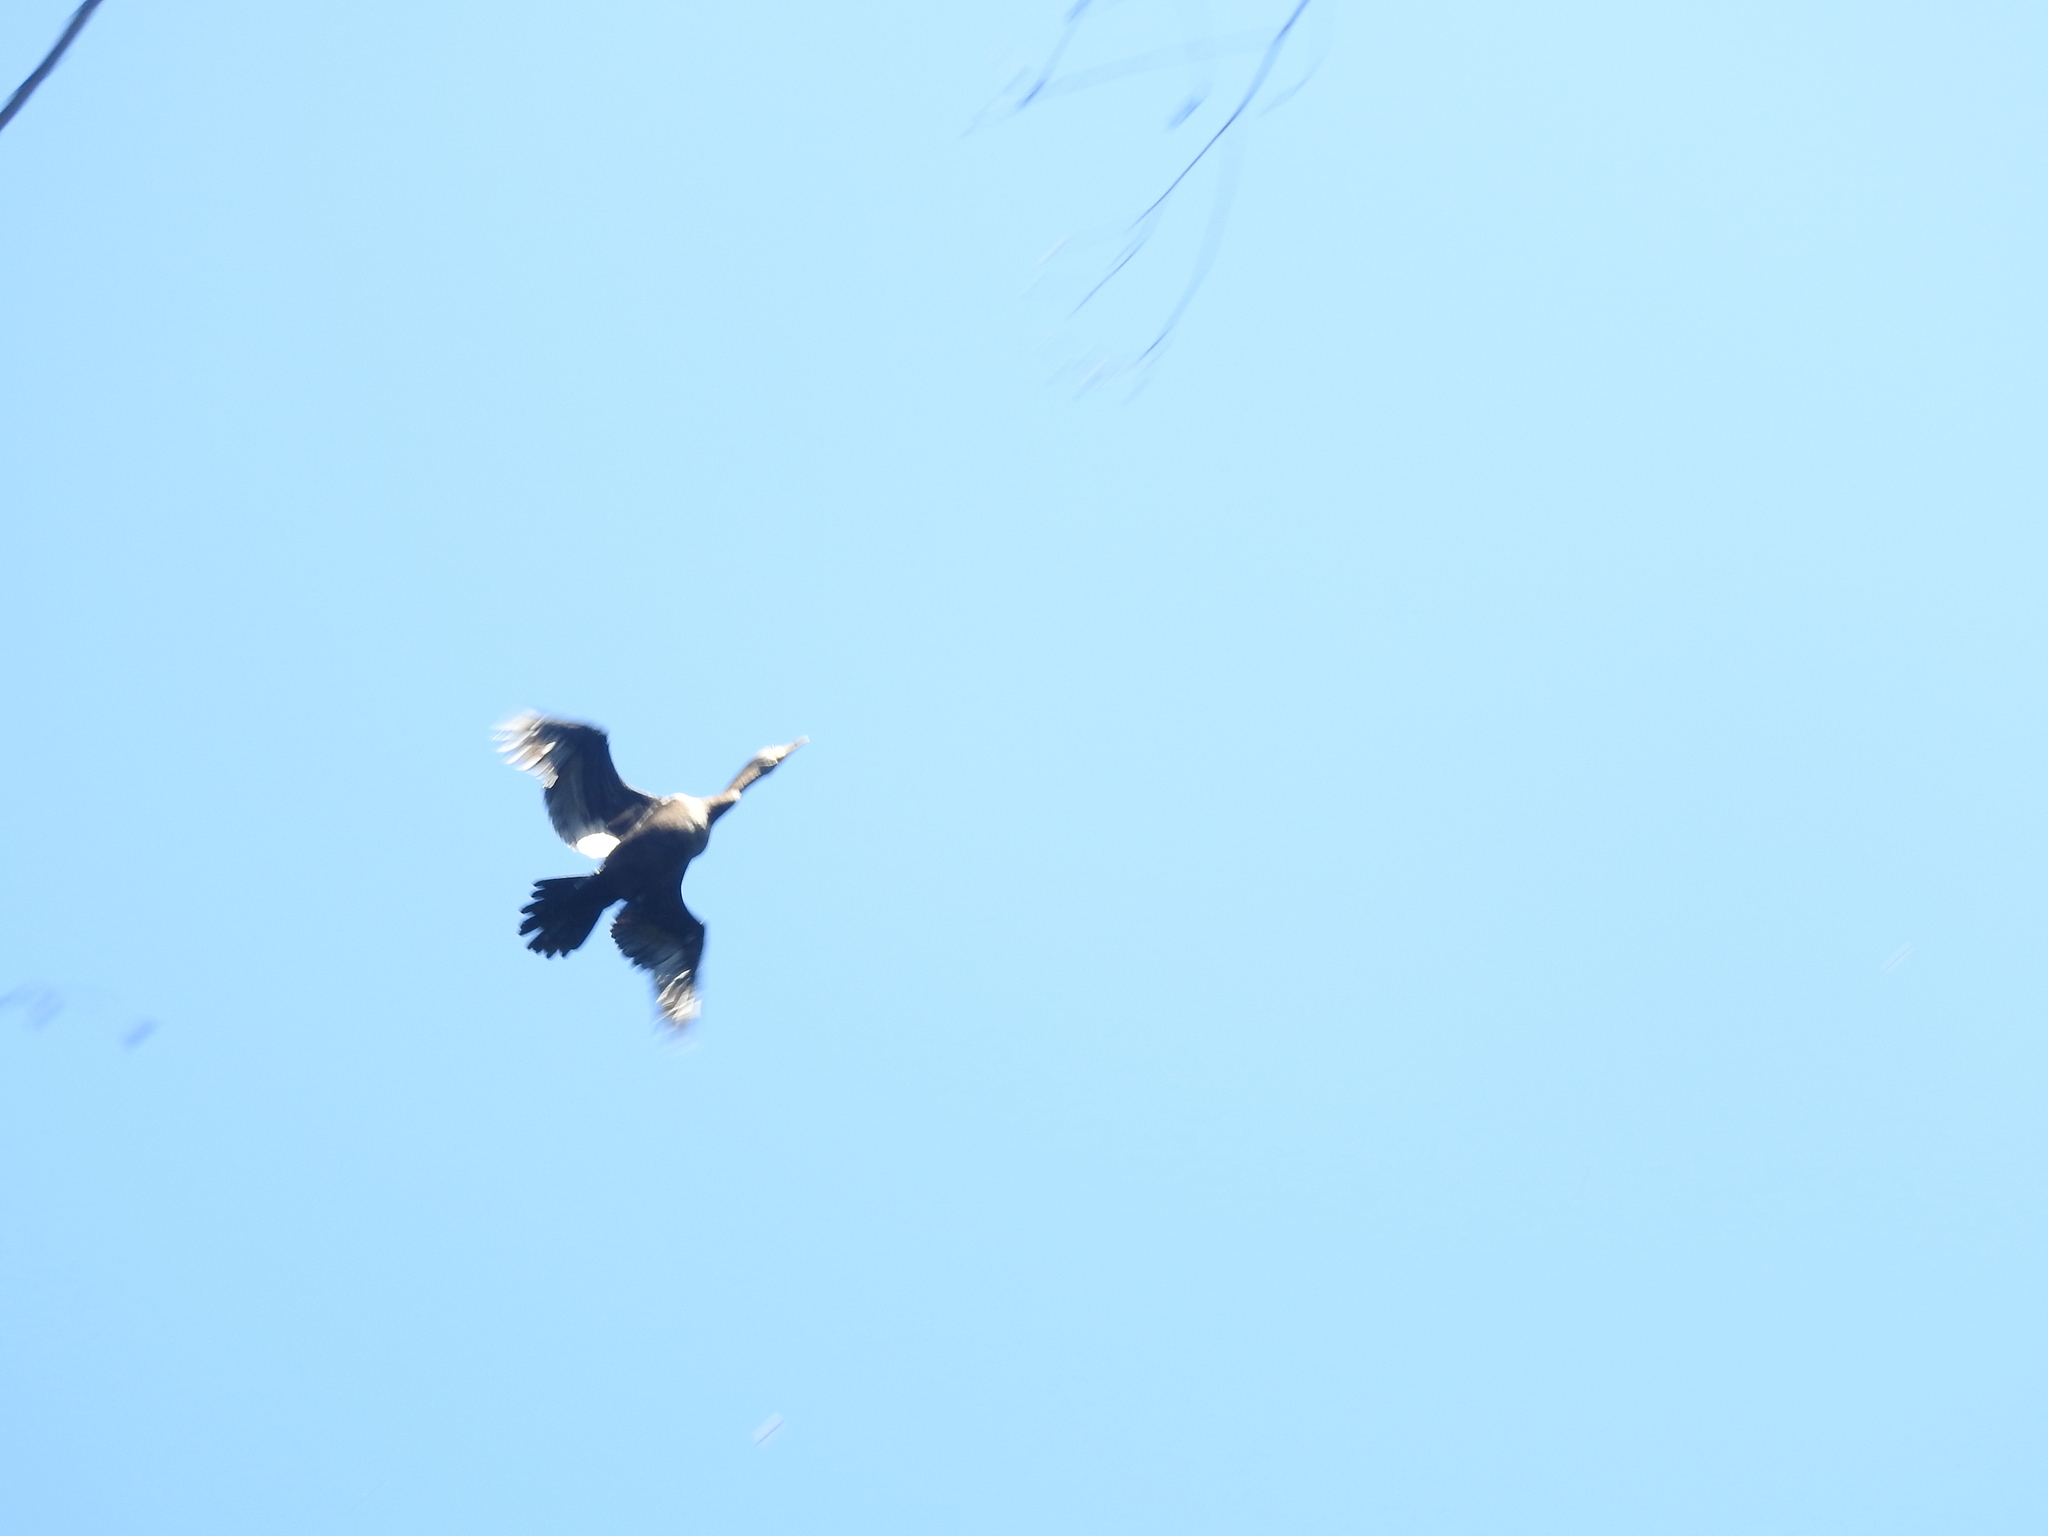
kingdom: Animalia
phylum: Chordata
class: Aves
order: Suliformes
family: Phalacrocoracidae
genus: Phalacrocorax
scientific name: Phalacrocorax brasilianus
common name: Neotropic cormorant
